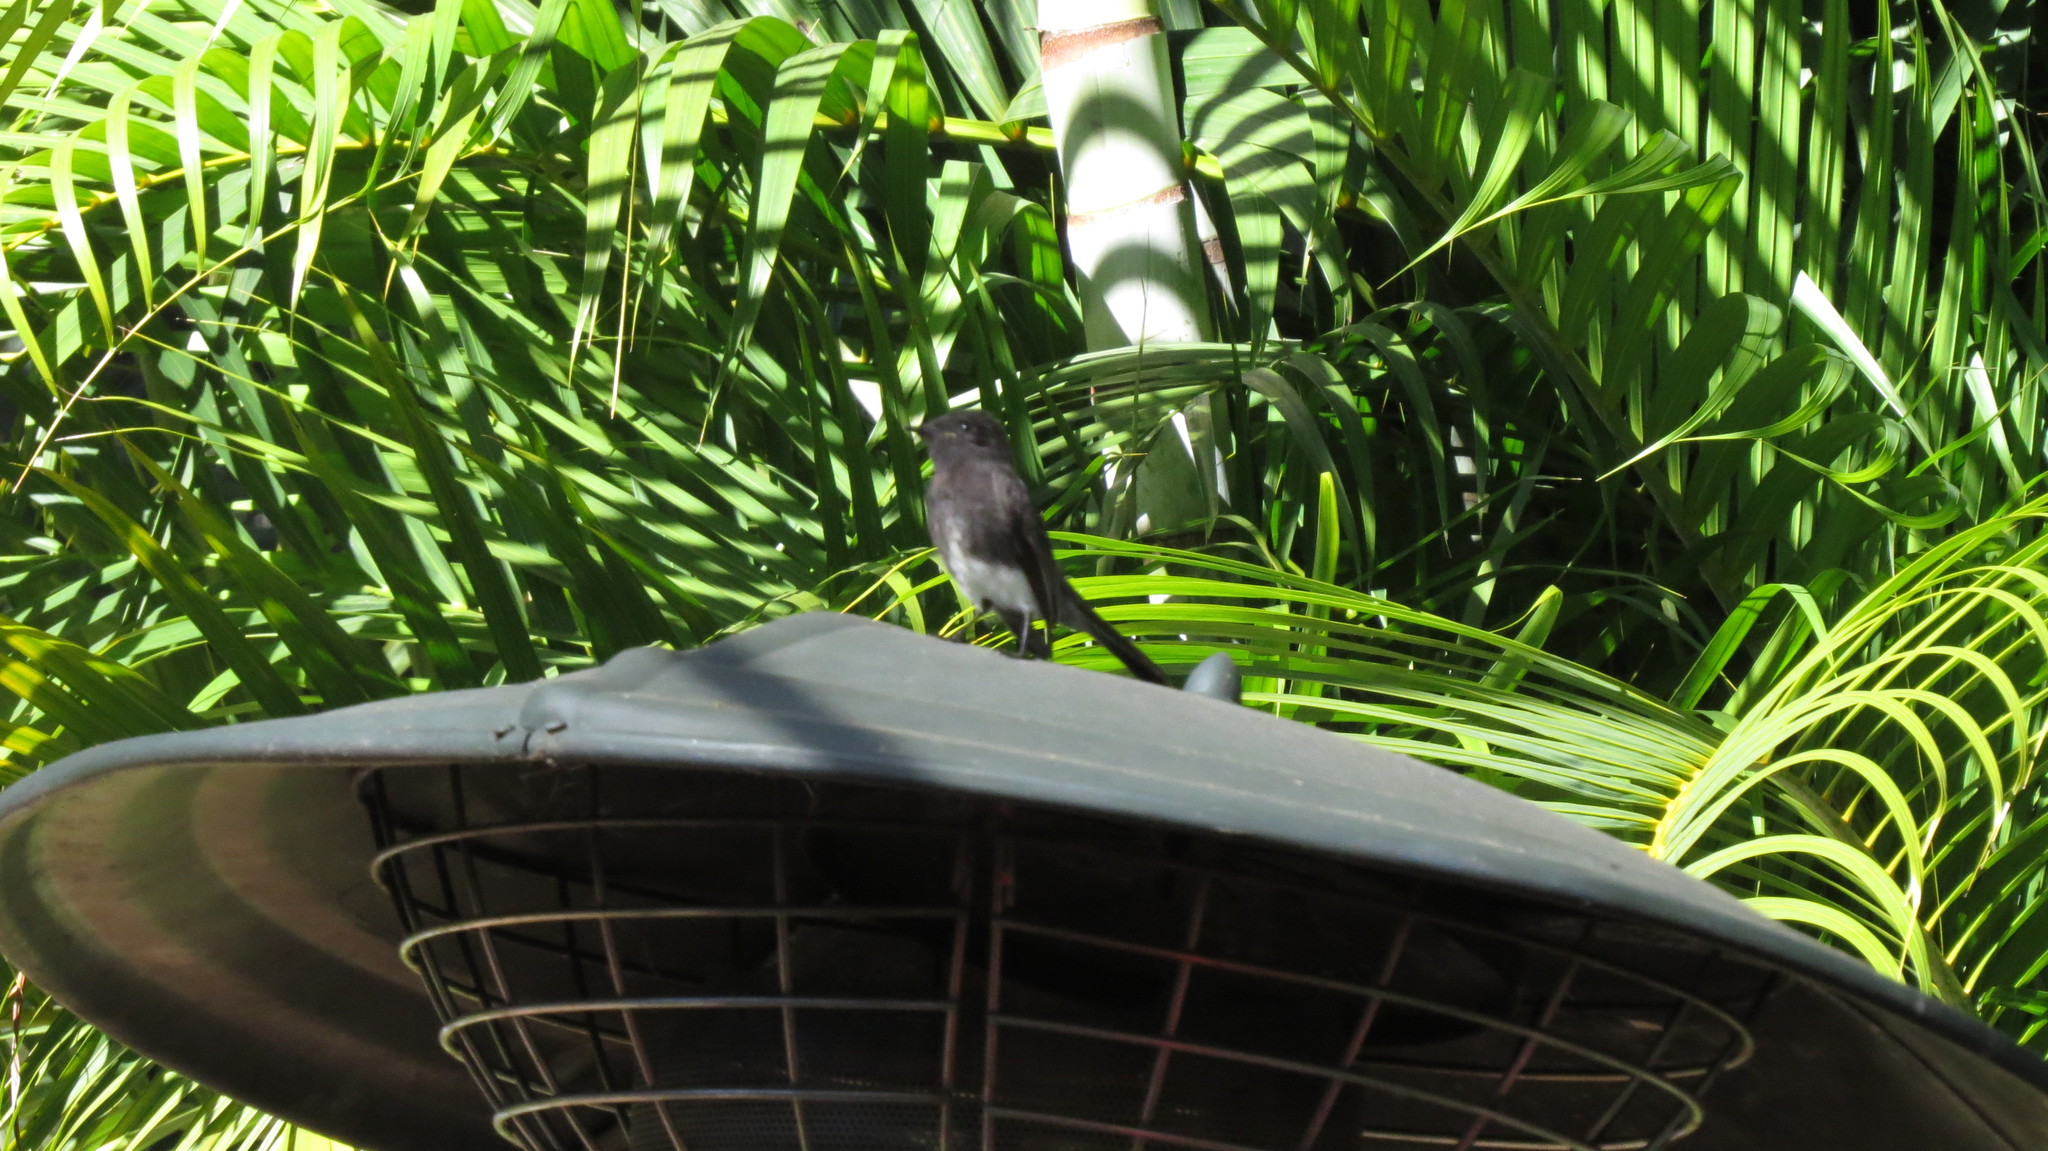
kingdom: Animalia
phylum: Chordata
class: Aves
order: Passeriformes
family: Tyrannidae
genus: Sayornis
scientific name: Sayornis nigricans
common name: Black phoebe
